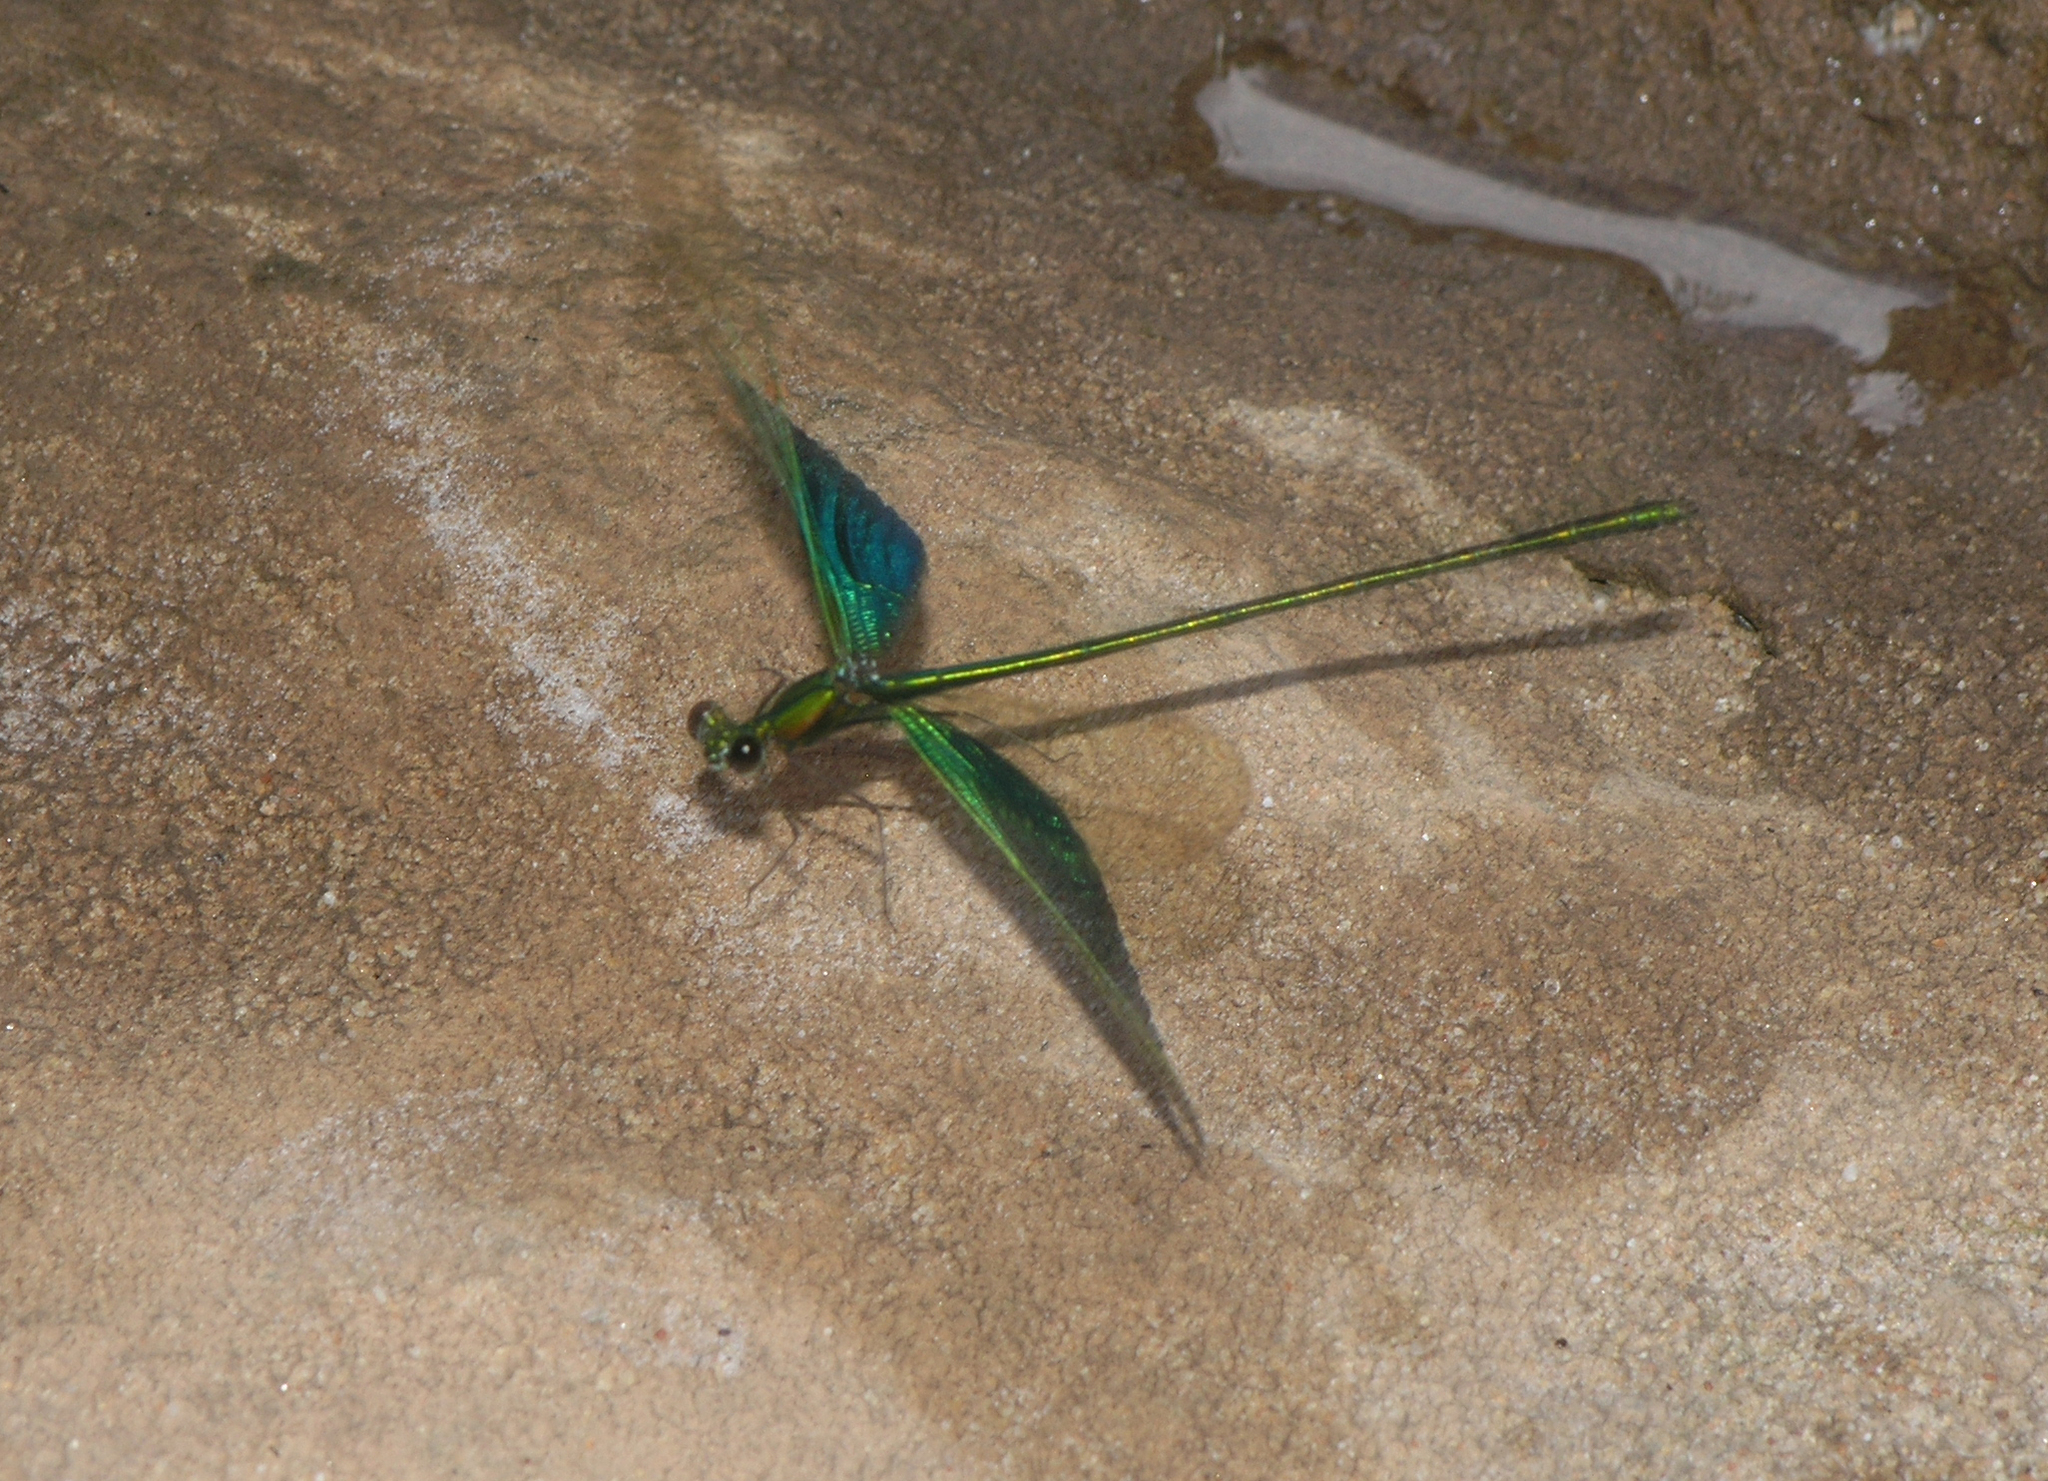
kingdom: Animalia
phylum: Arthropoda
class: Insecta
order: Odonata
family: Calopterygidae
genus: Neurobasis
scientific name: Neurobasis chinensis
